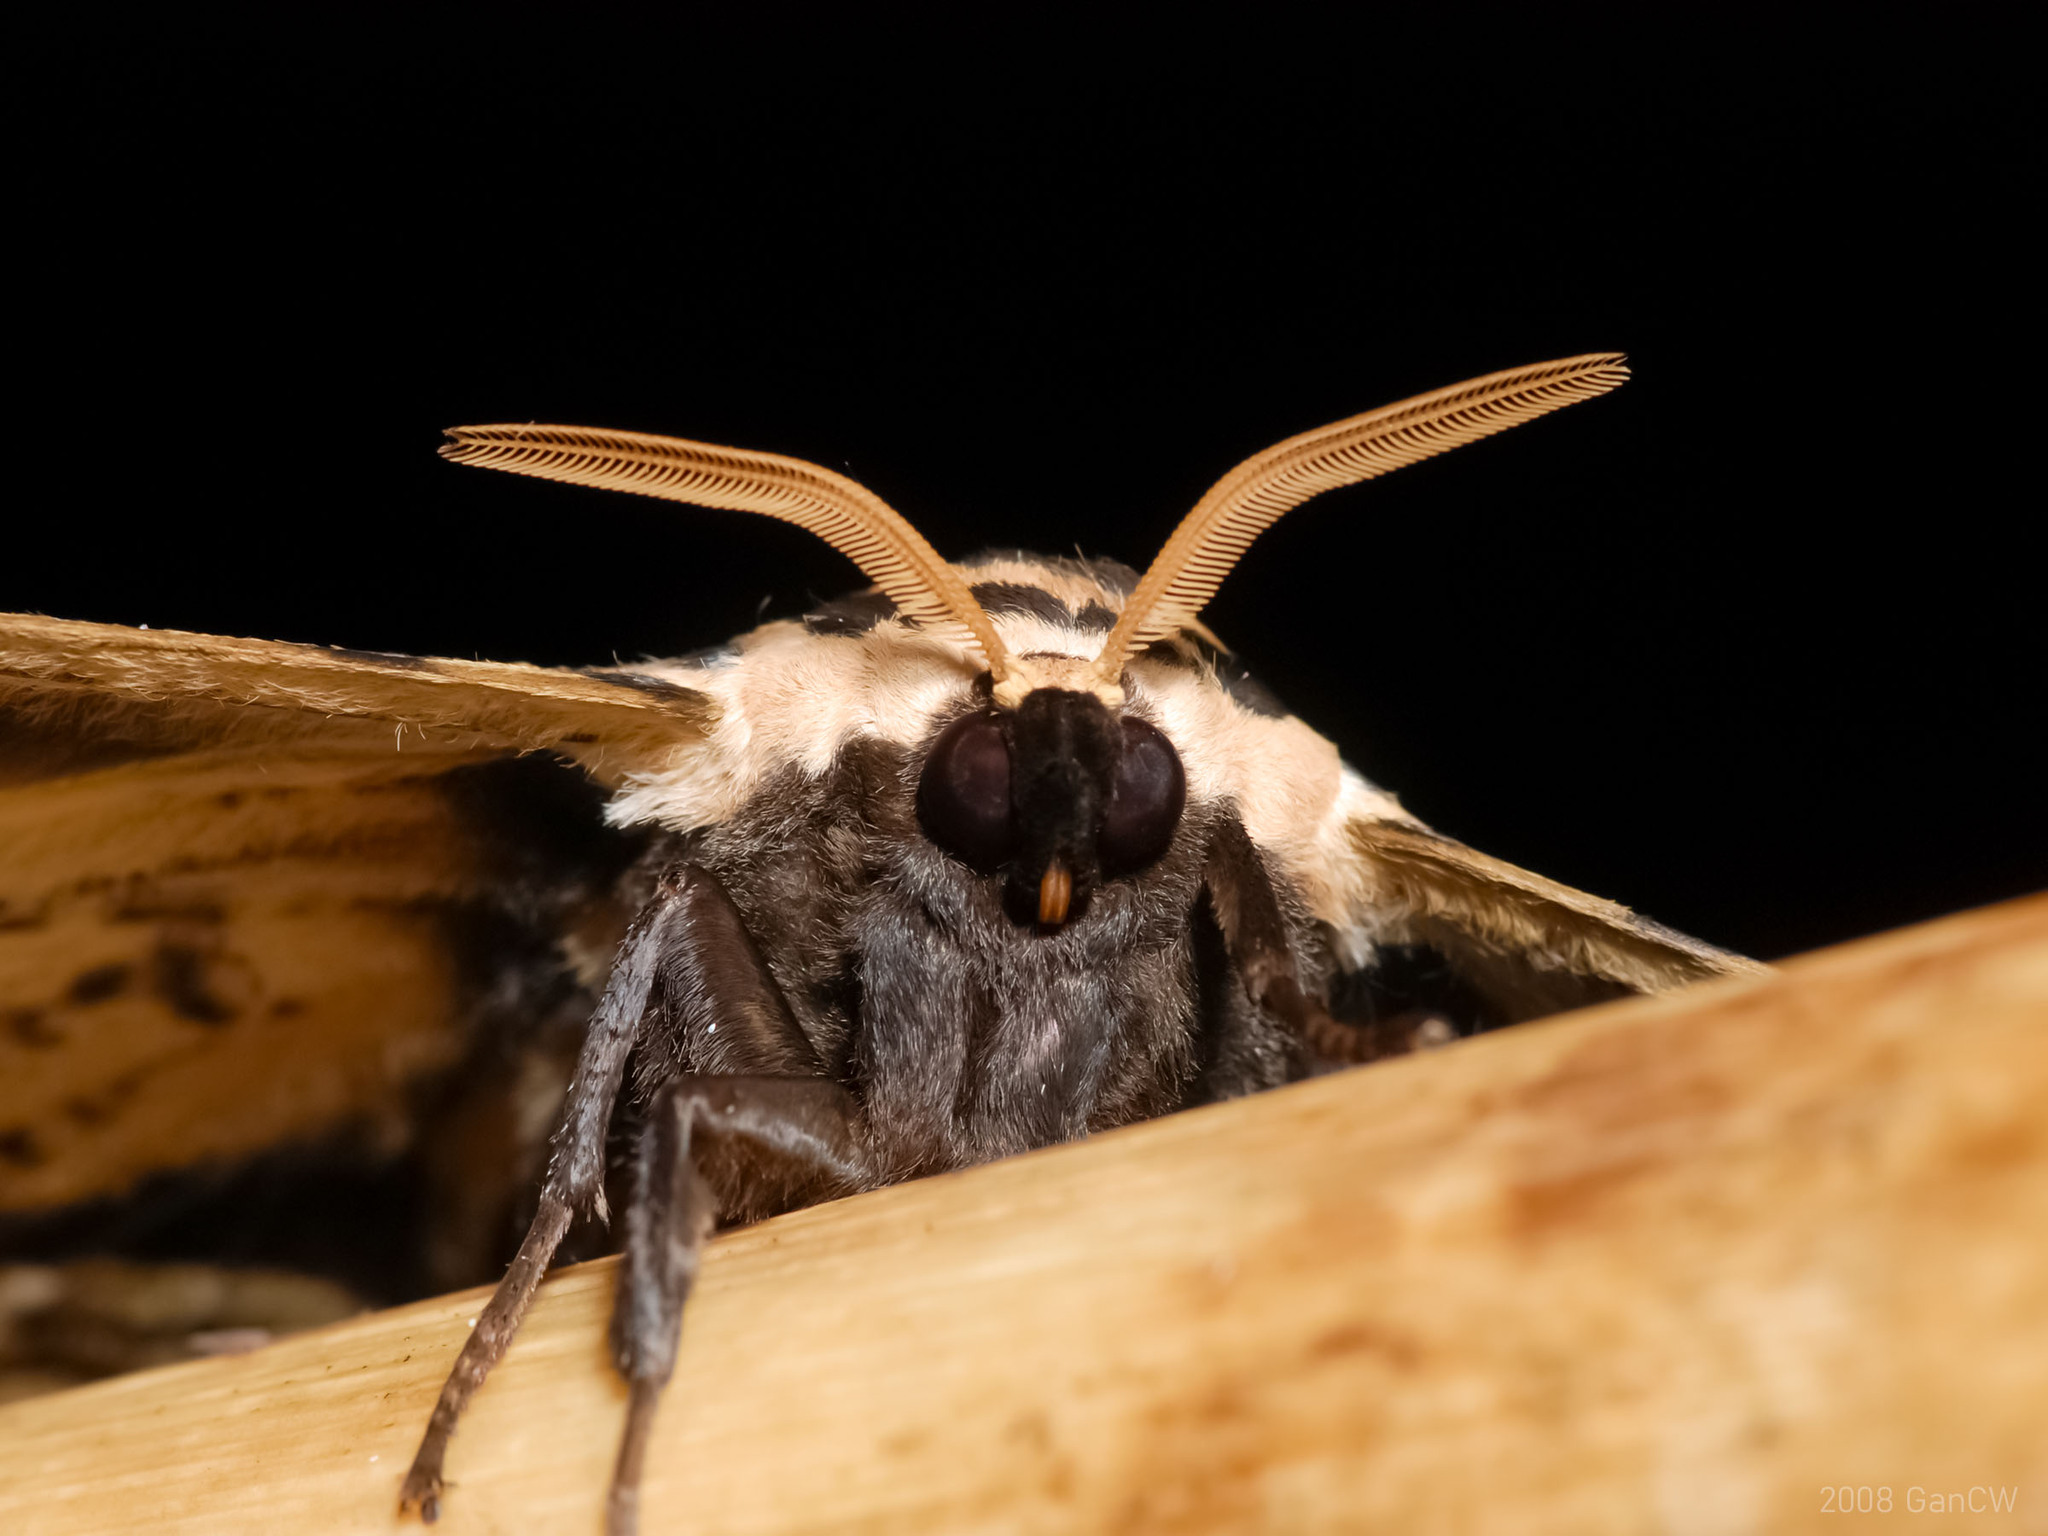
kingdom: Animalia
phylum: Arthropoda
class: Insecta
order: Lepidoptera
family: Brahmaeidae
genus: Brahmaea
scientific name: Brahmaea hearseyi
